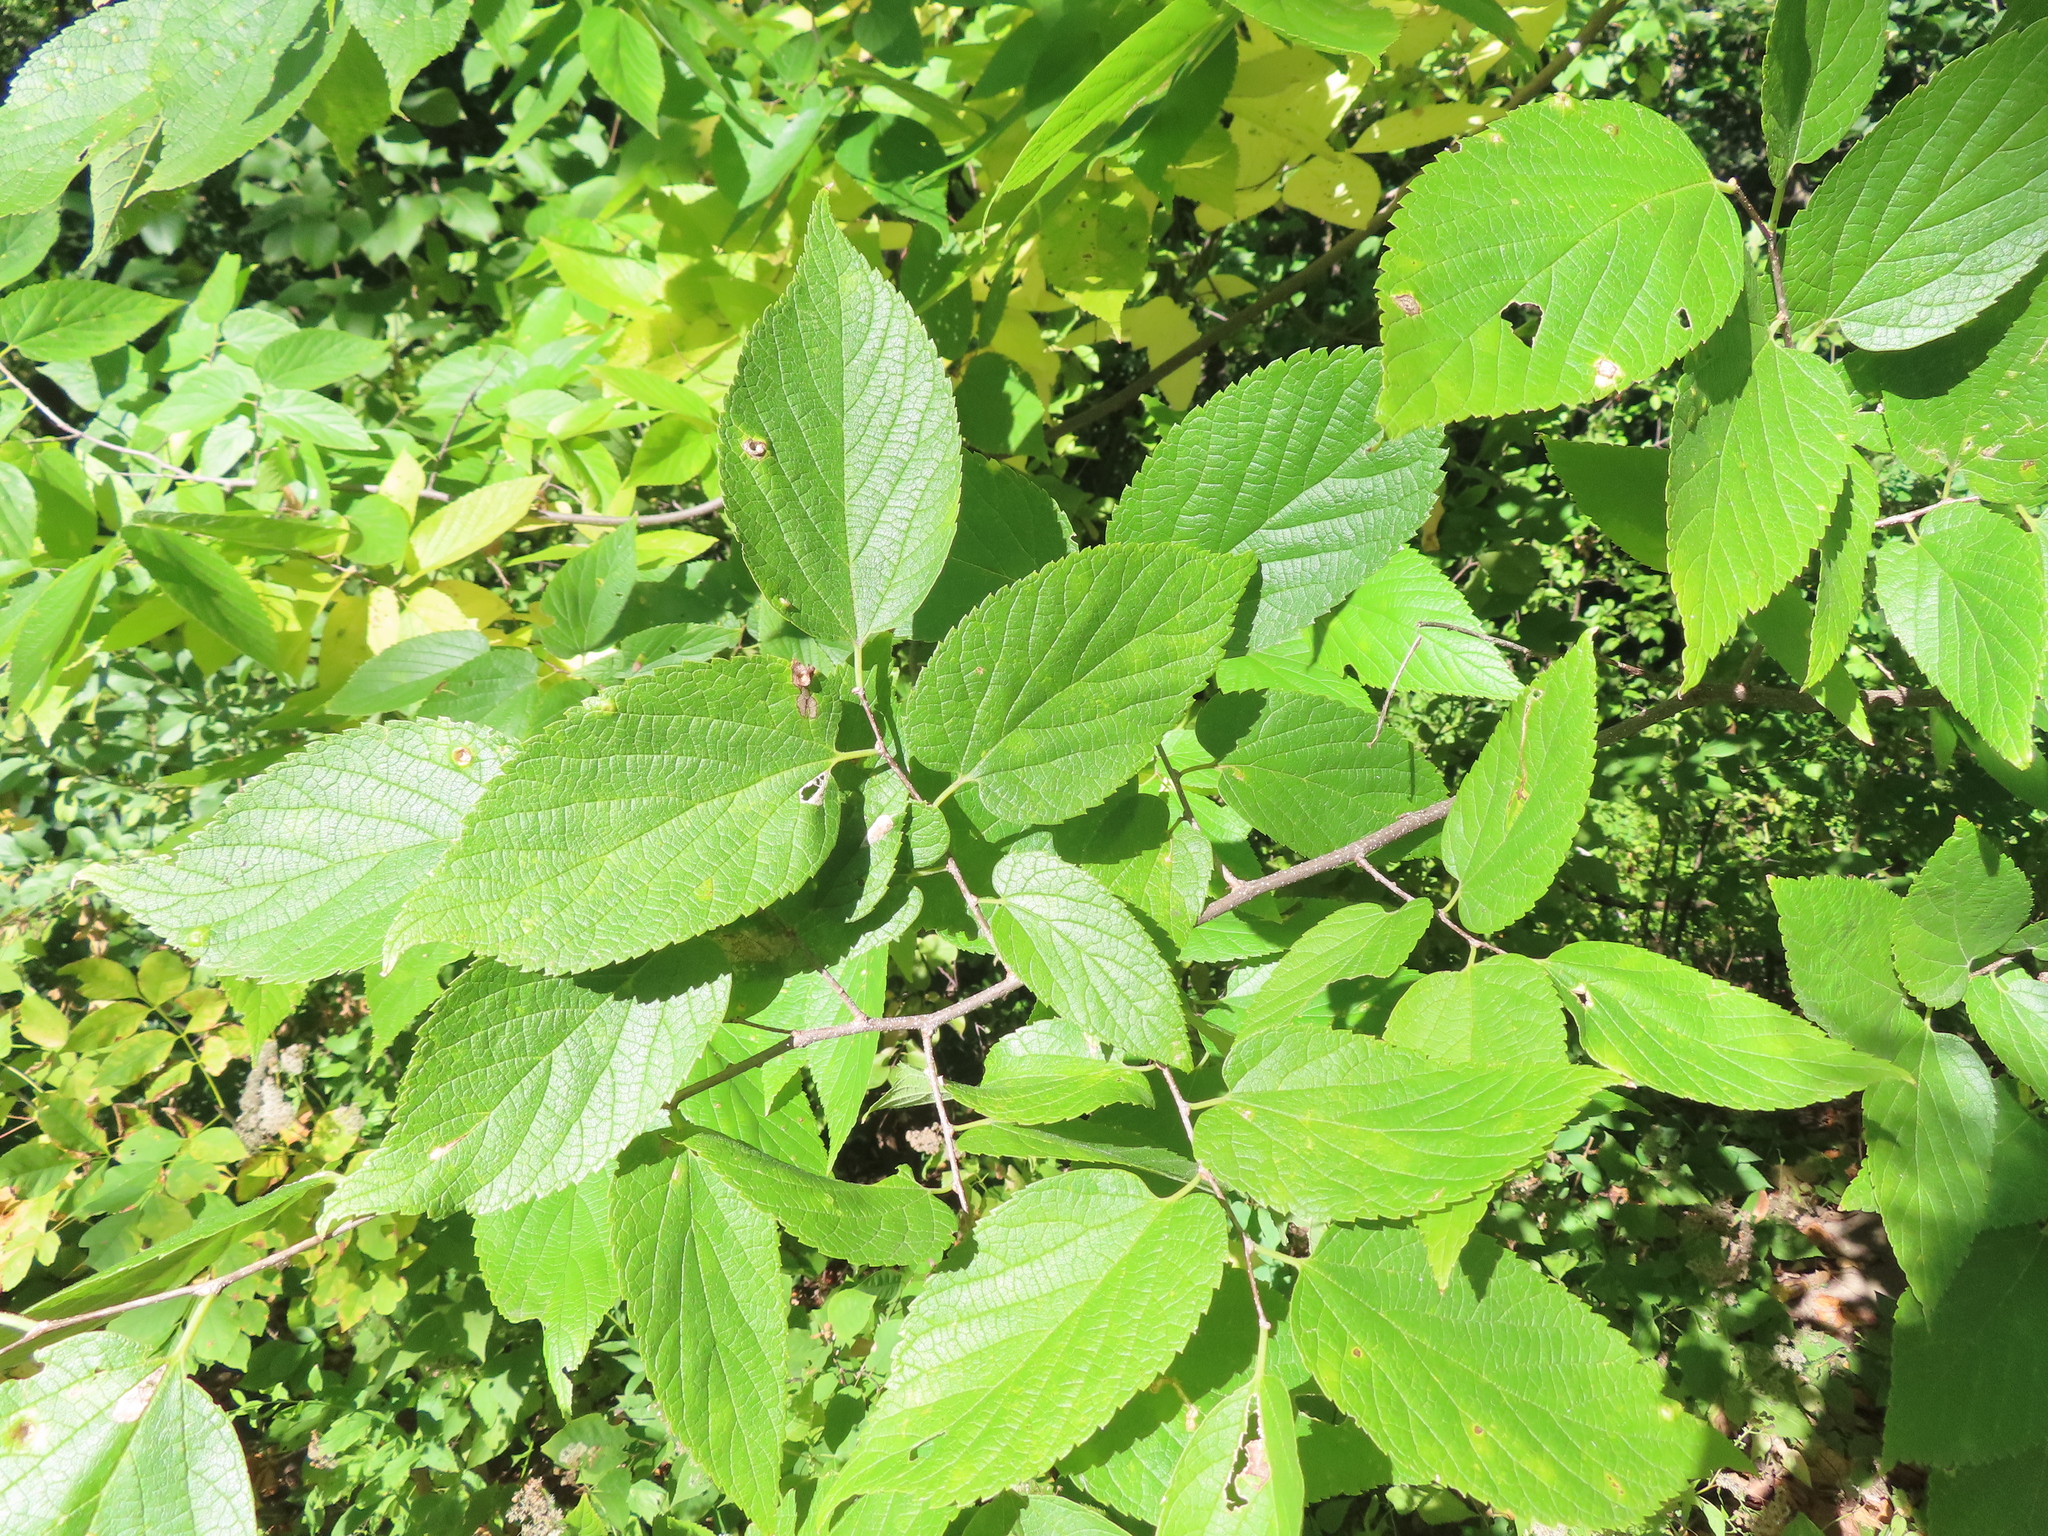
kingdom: Plantae
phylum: Tracheophyta
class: Magnoliopsida
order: Rosales
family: Cannabaceae
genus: Celtis
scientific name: Celtis occidentalis
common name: Common hackberry
